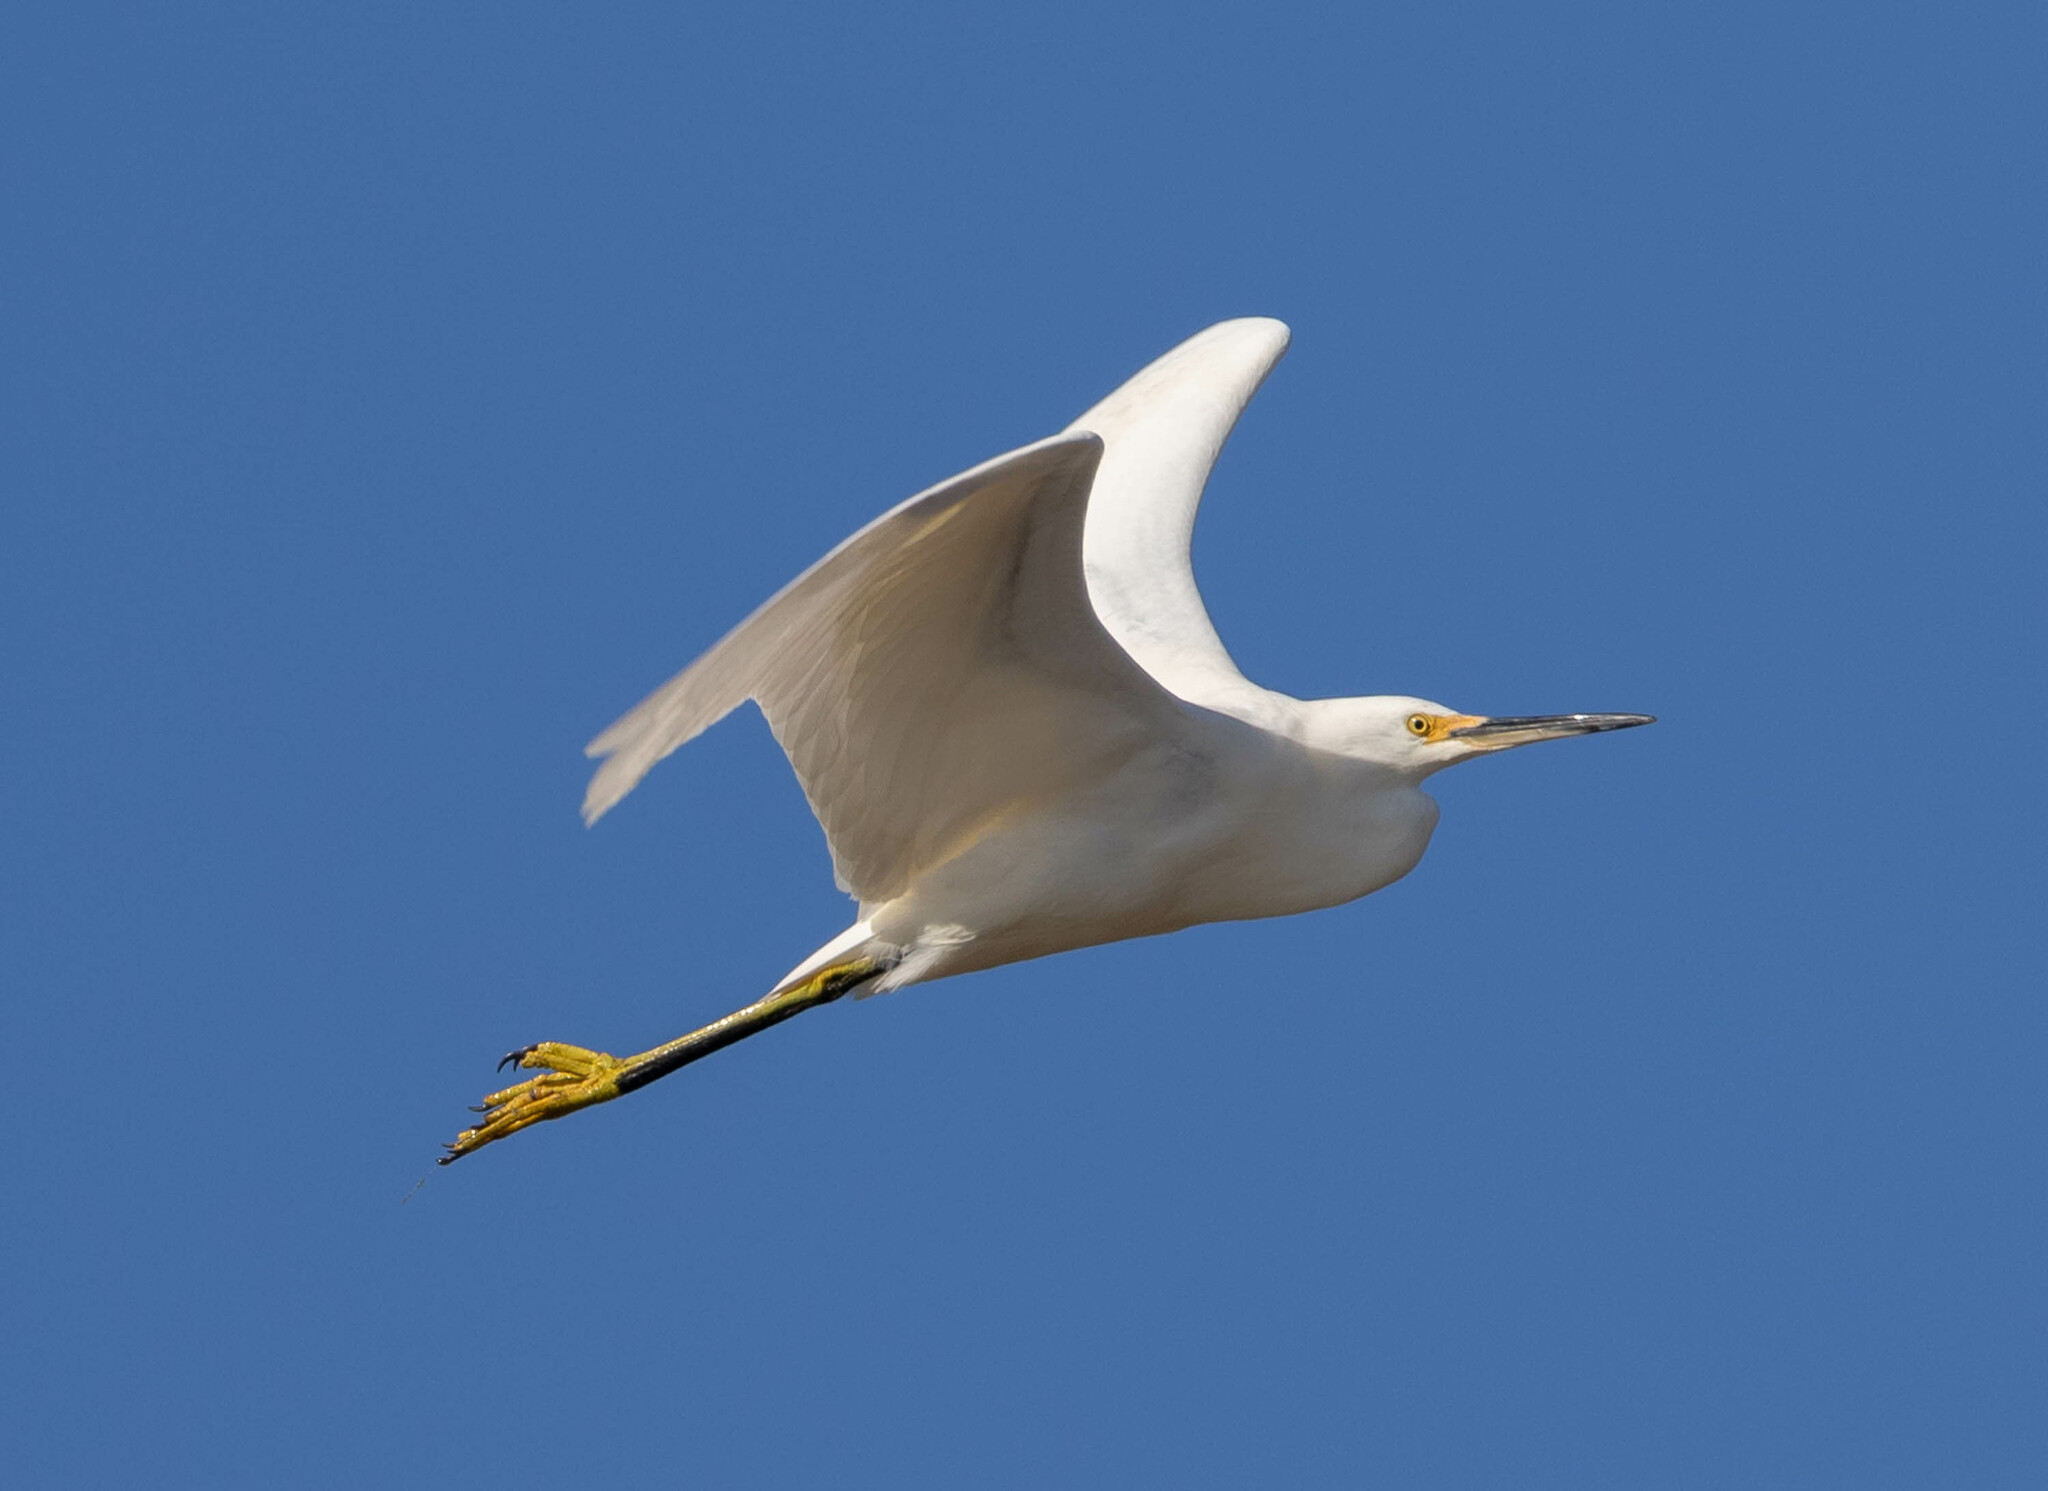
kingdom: Animalia
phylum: Chordata
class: Aves
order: Pelecaniformes
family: Ardeidae
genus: Egretta
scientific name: Egretta thula
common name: Snowy egret
